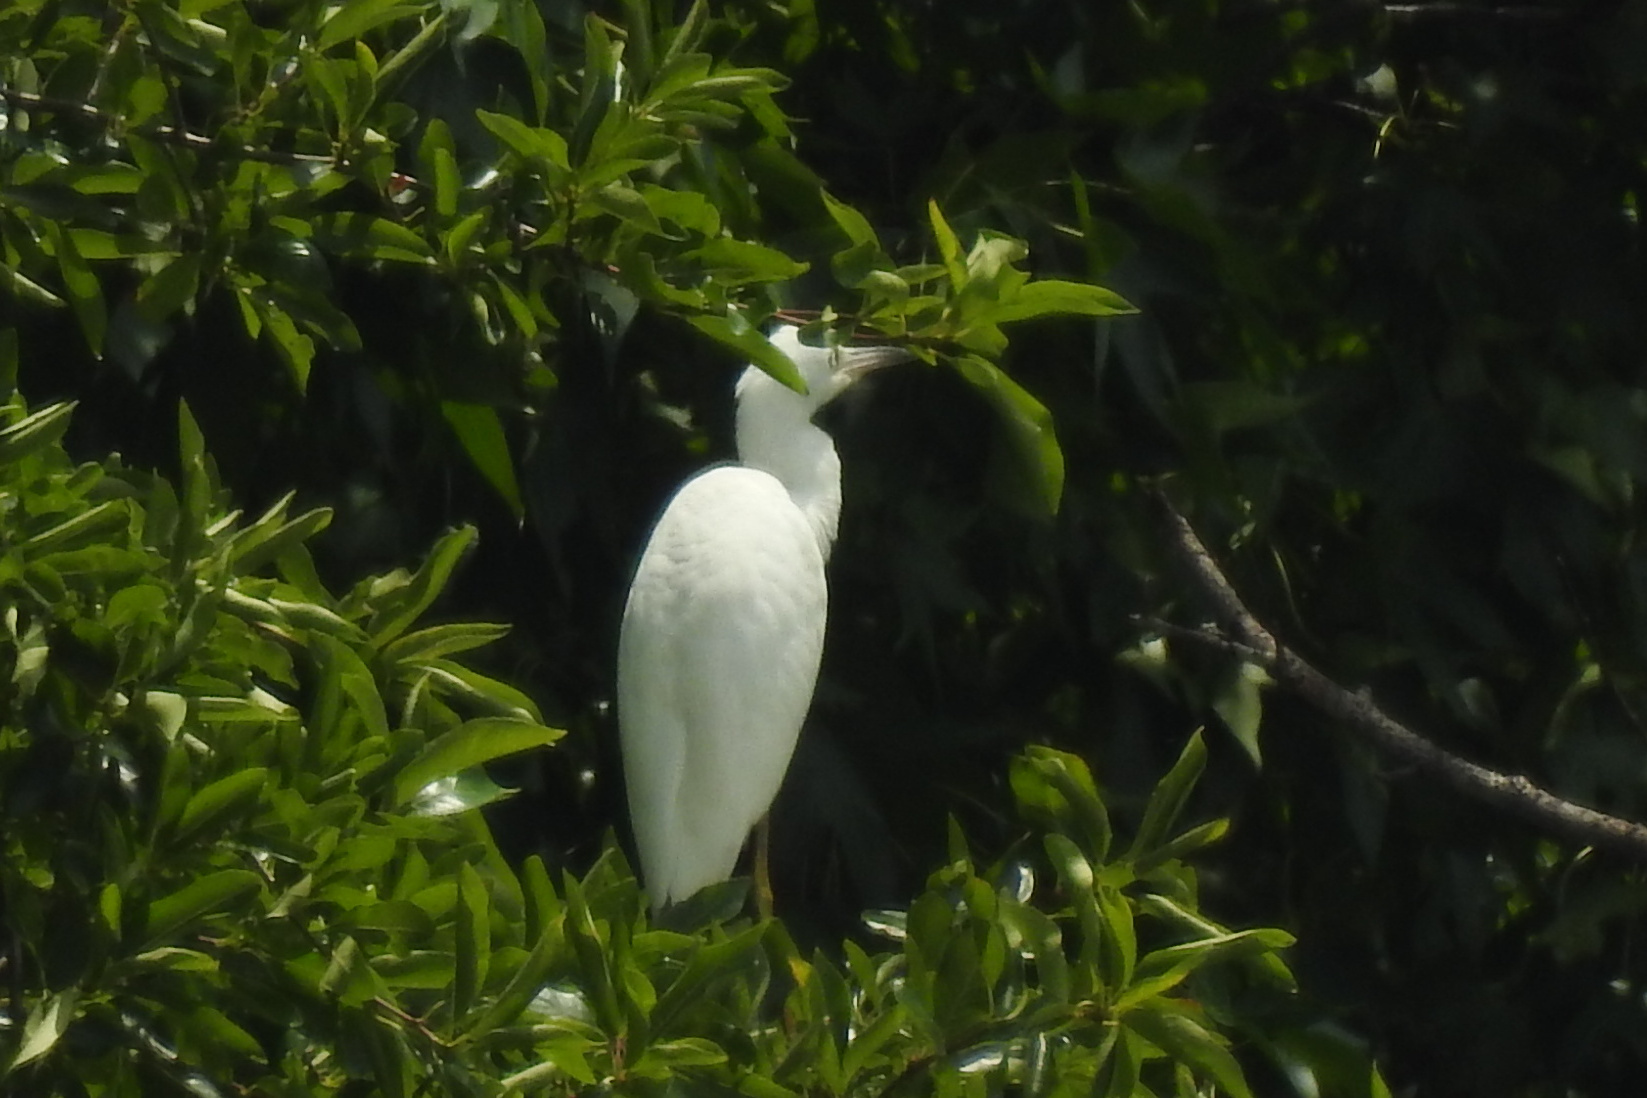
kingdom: Animalia
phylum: Chordata
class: Aves
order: Pelecaniformes
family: Ardeidae
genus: Egretta
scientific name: Egretta caerulea
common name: Little blue heron
